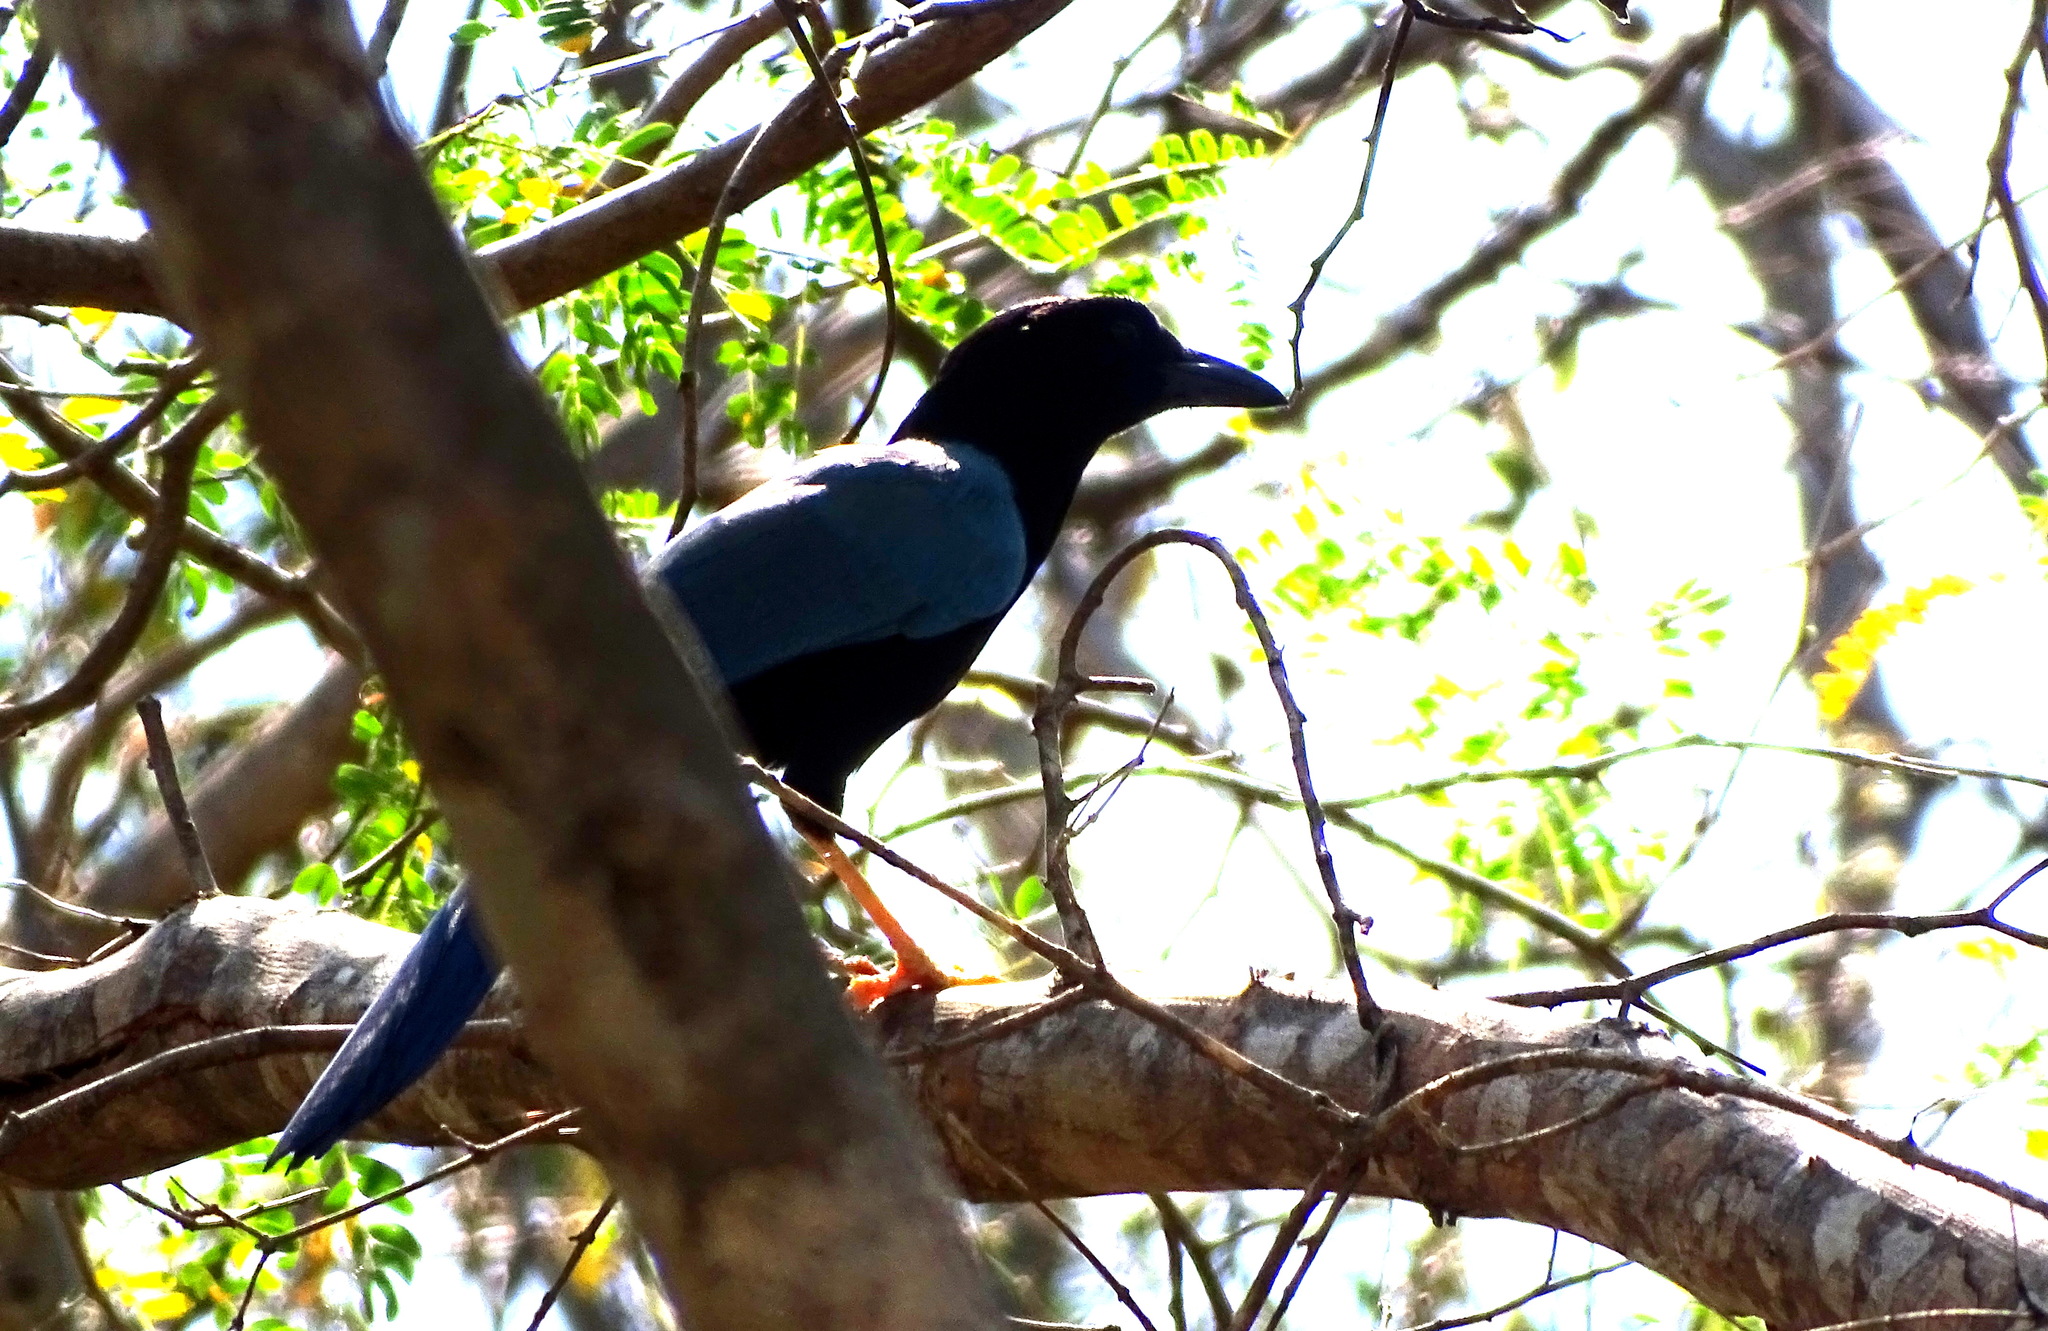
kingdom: Animalia
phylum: Chordata
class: Aves
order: Passeriformes
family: Corvidae
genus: Cyanocorax
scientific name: Cyanocorax yucatanicus
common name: Yucatan jay
